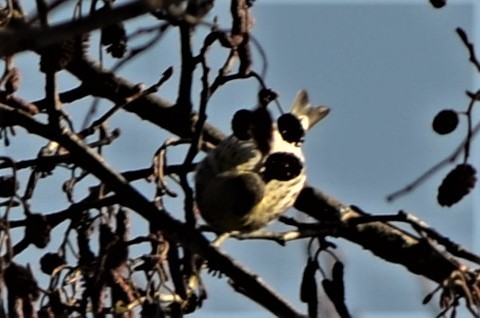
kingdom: Animalia
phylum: Chordata
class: Aves
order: Passeriformes
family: Fringillidae
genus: Spinus
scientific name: Spinus spinus
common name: Eurasian siskin
